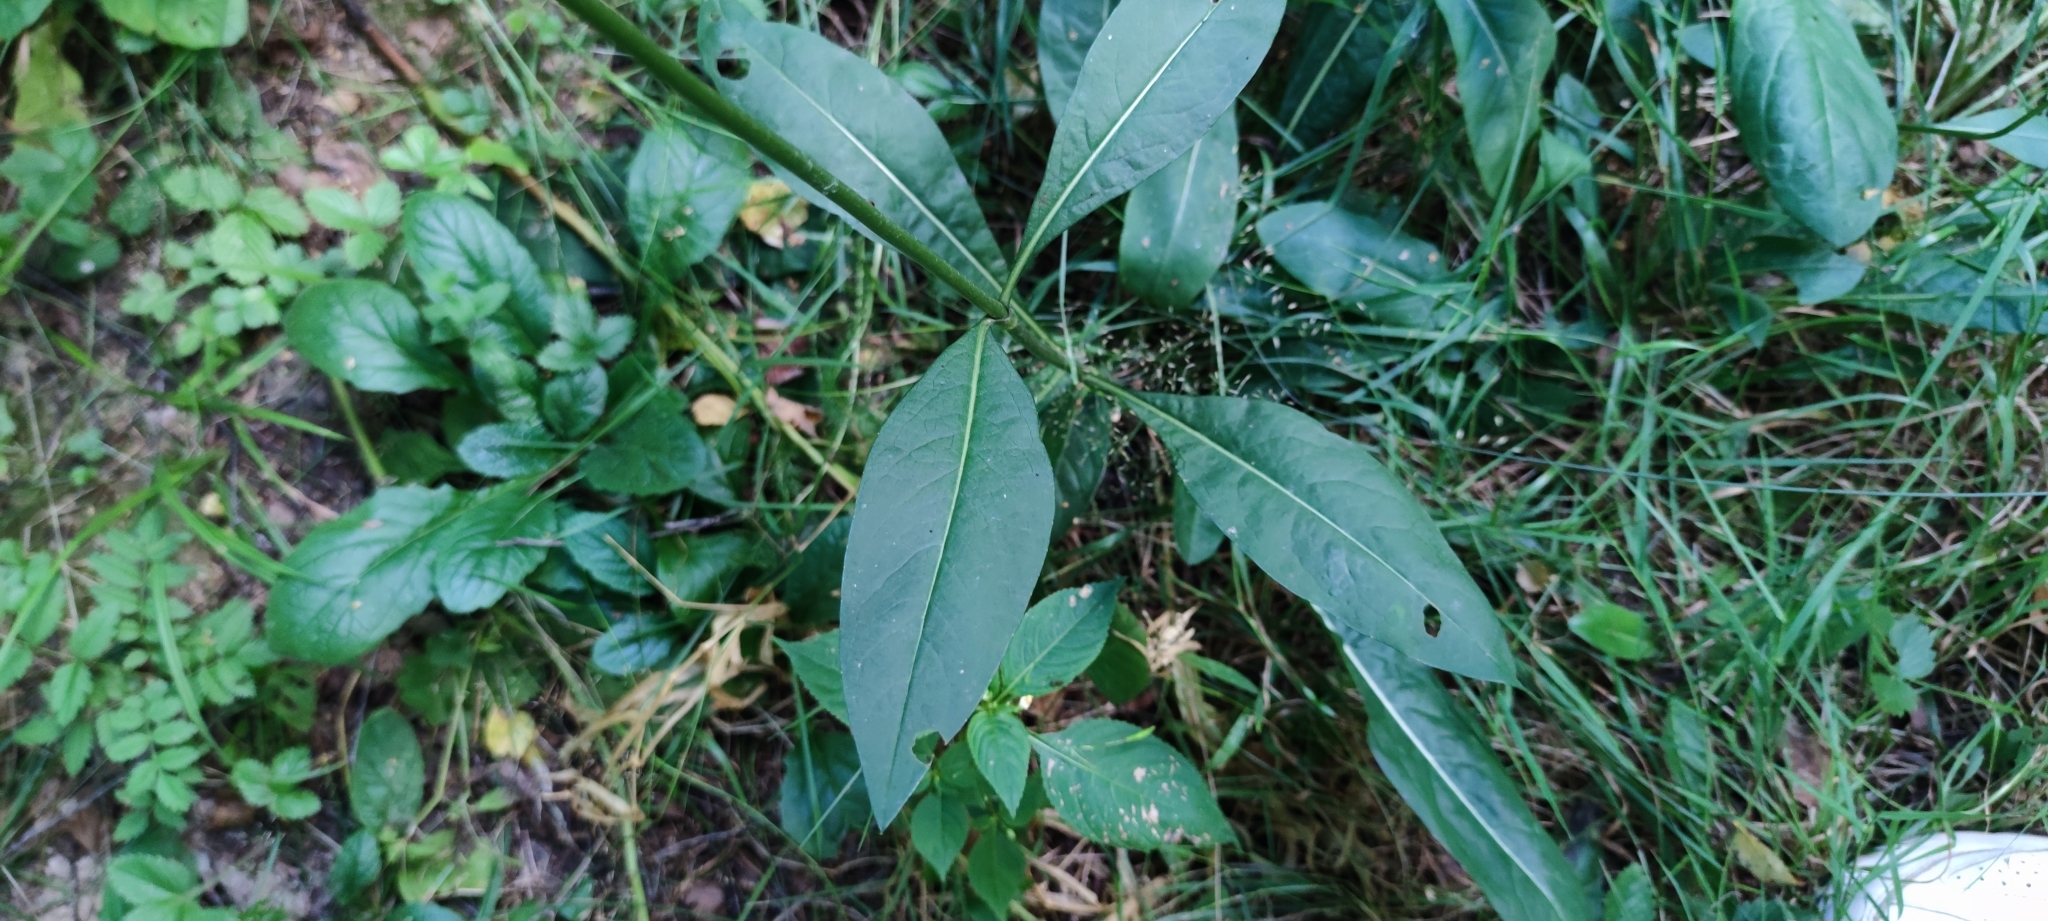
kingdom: Plantae
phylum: Tracheophyta
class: Magnoliopsida
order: Dipsacales
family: Caprifoliaceae
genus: Succisa
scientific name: Succisa pratensis
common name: Devil's-bit
